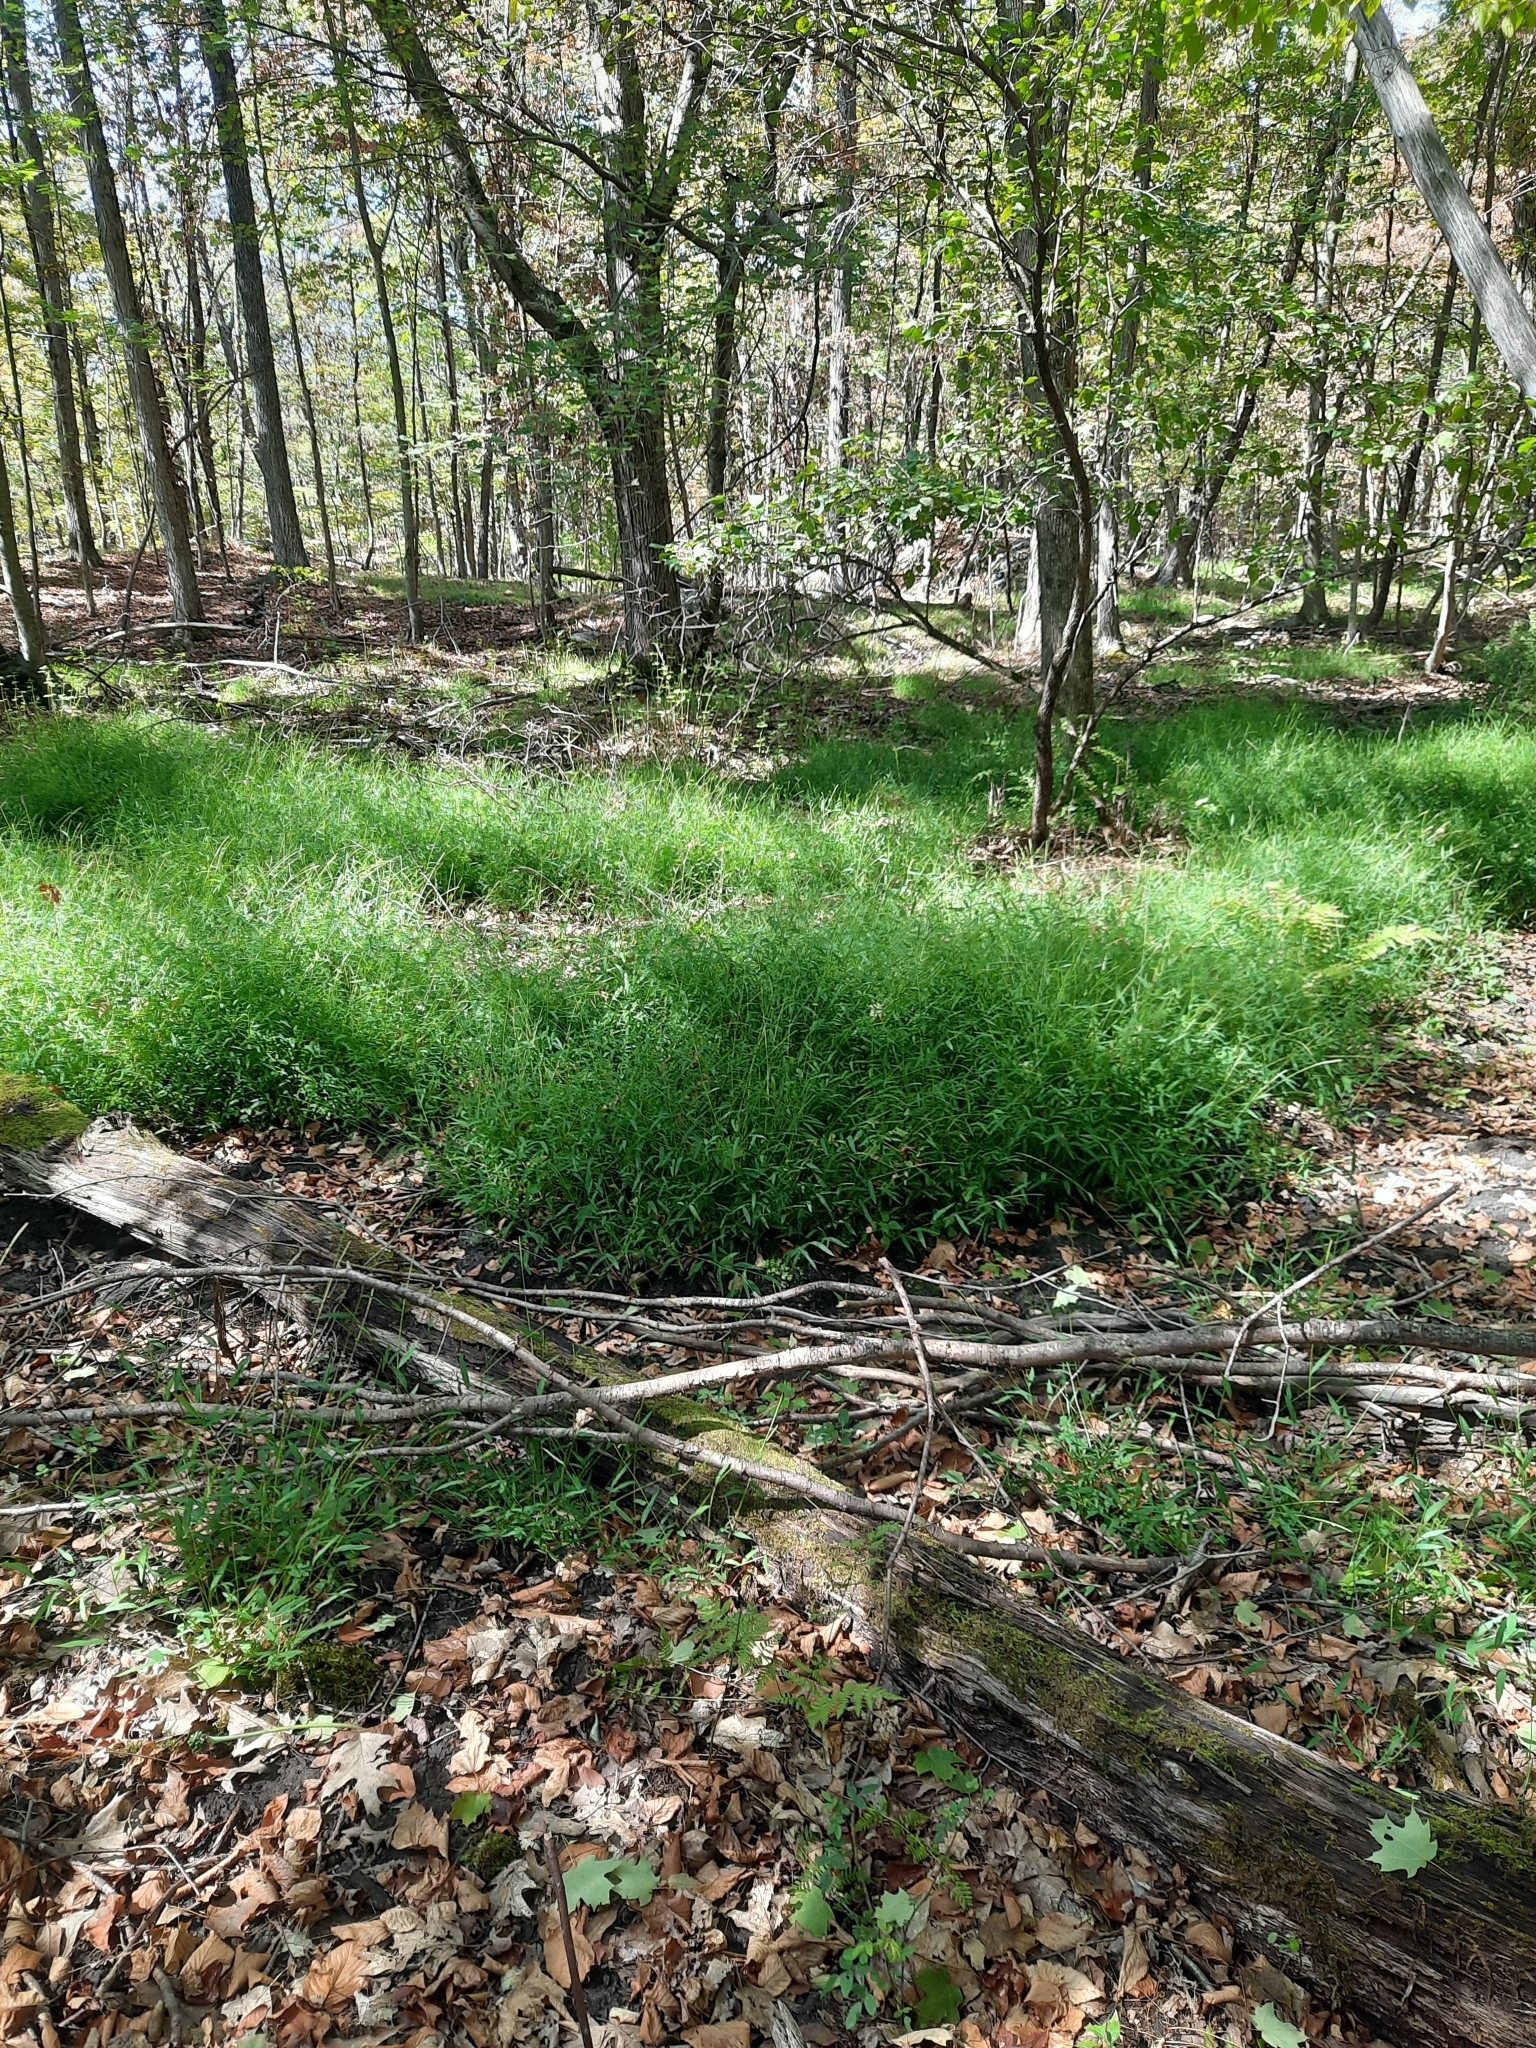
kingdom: Plantae
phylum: Tracheophyta
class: Liliopsida
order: Poales
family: Poaceae
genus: Microstegium
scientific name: Microstegium vimineum
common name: Japanese stiltgrass
